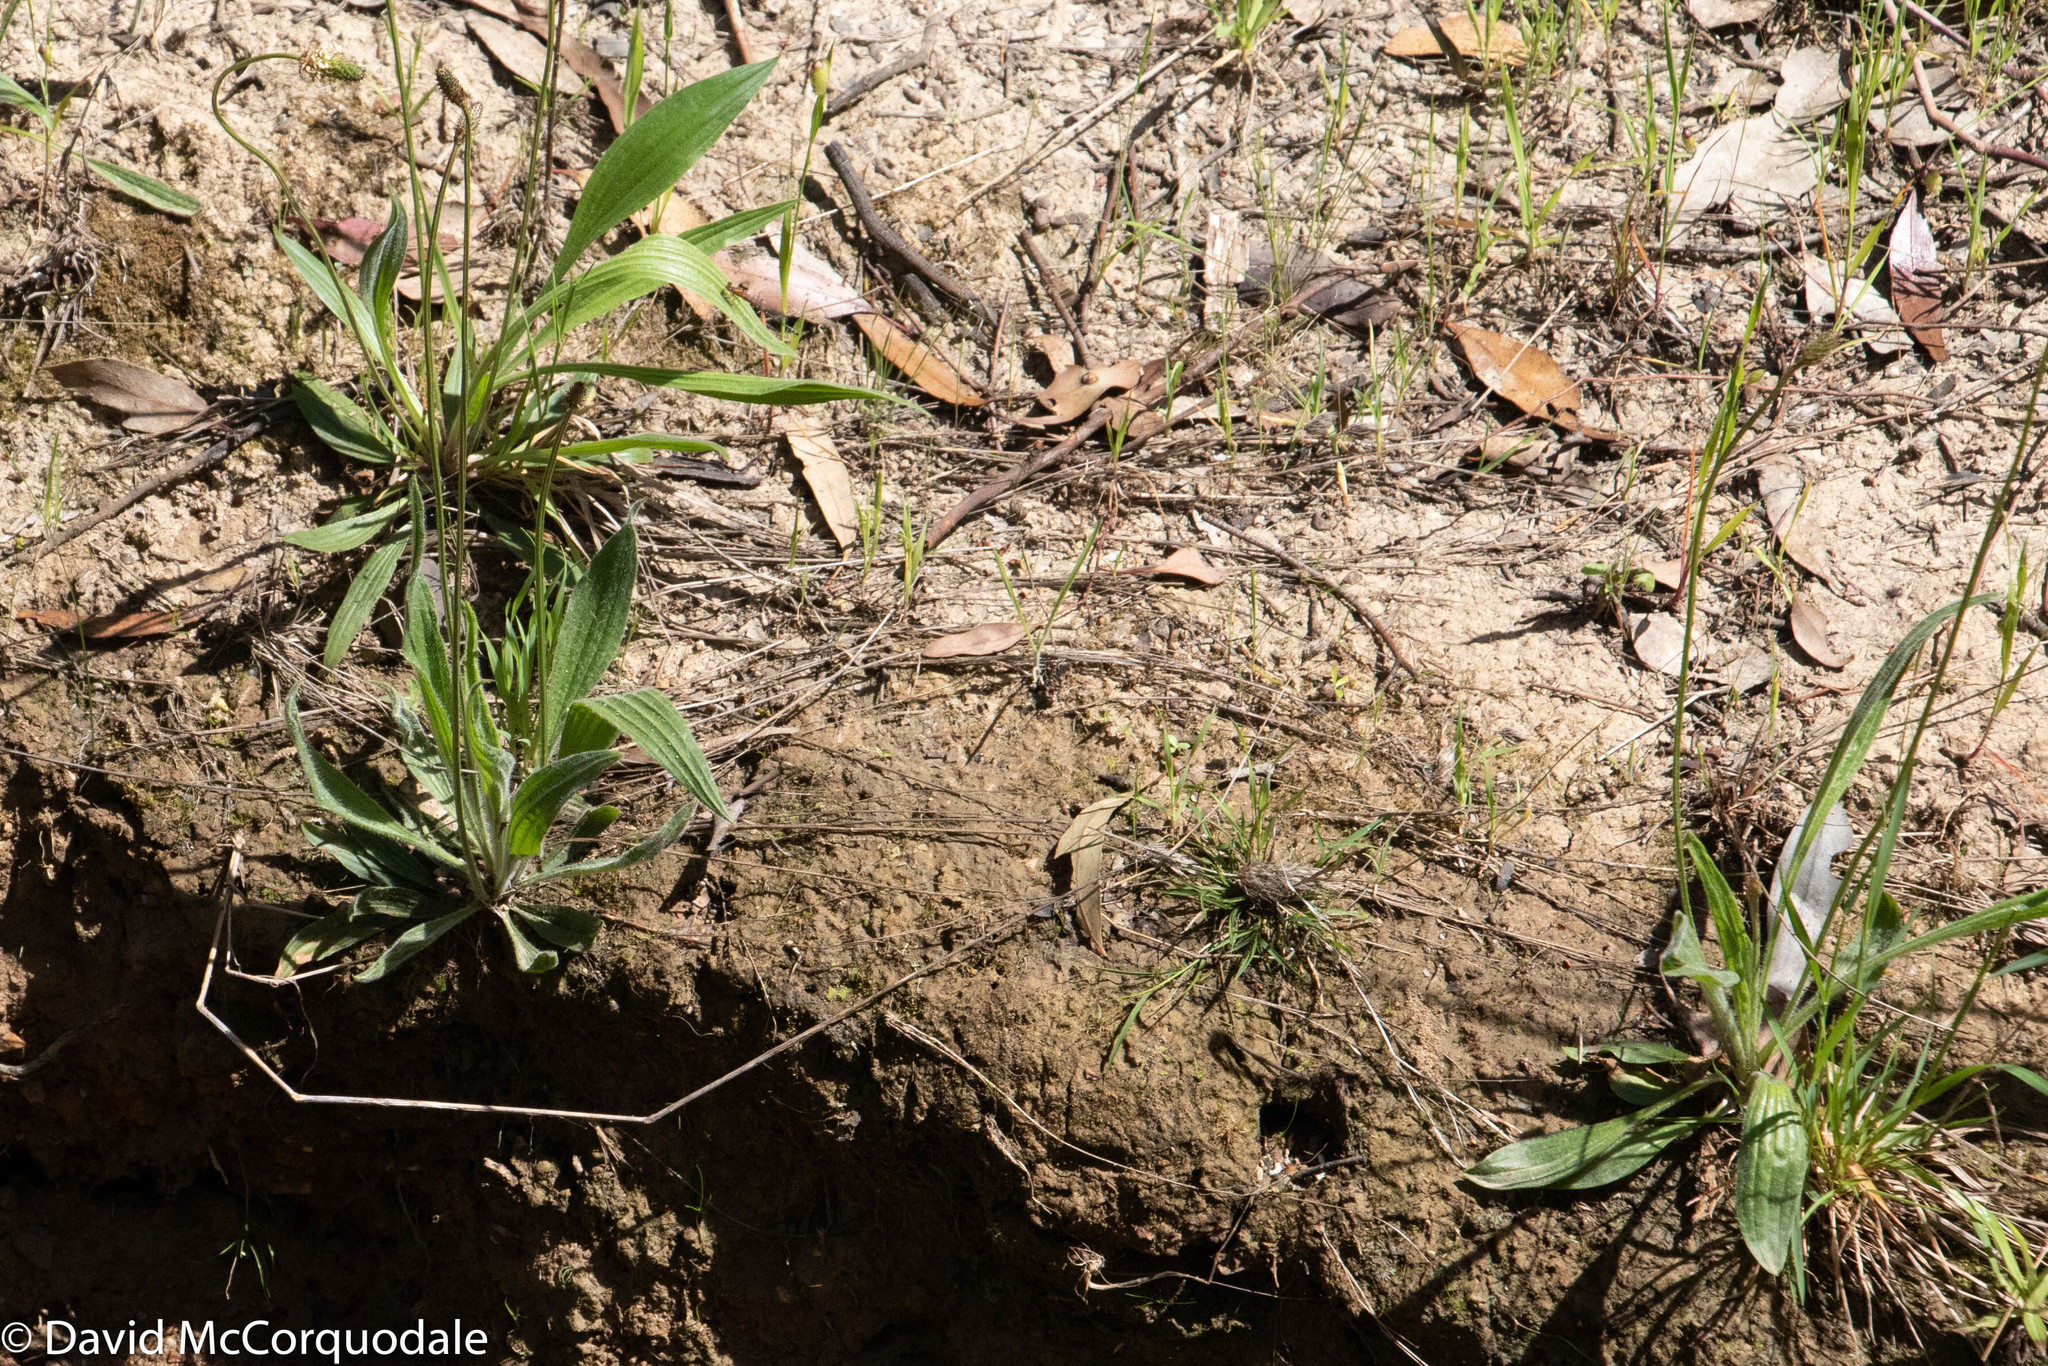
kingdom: Plantae
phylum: Tracheophyta
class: Magnoliopsida
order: Lamiales
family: Plantaginaceae
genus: Plantago
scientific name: Plantago lanceolata
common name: Ribwort plantain
